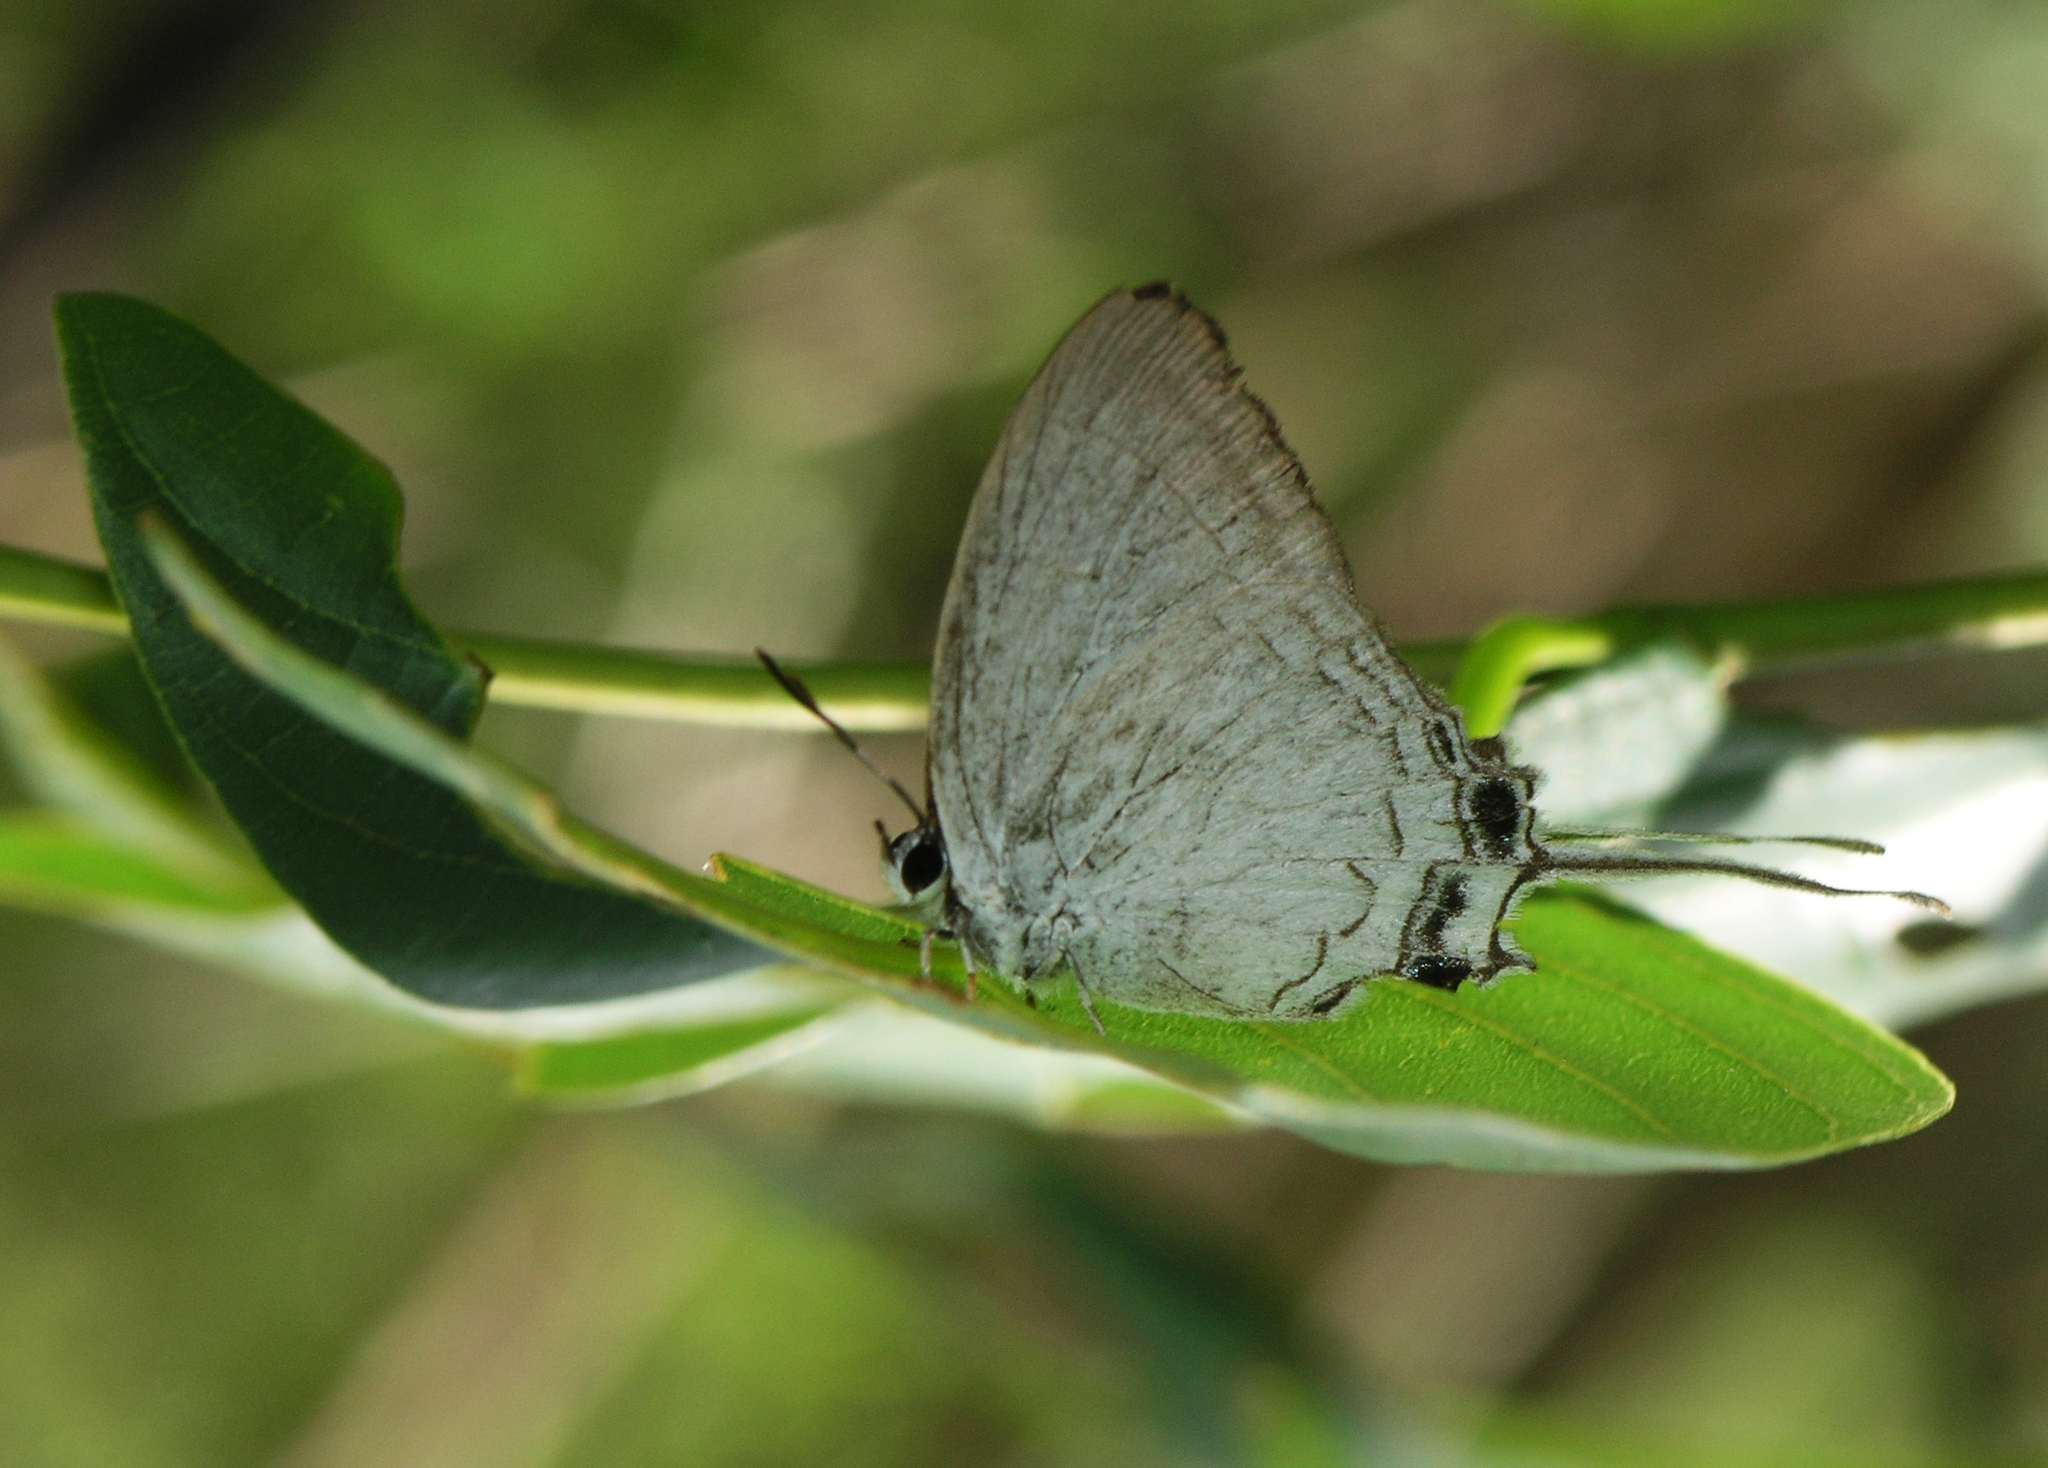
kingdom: Animalia
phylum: Arthropoda
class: Insecta
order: Lepidoptera
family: Lycaenidae
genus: Cheritra
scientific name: Cheritra freja
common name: Common imperial
